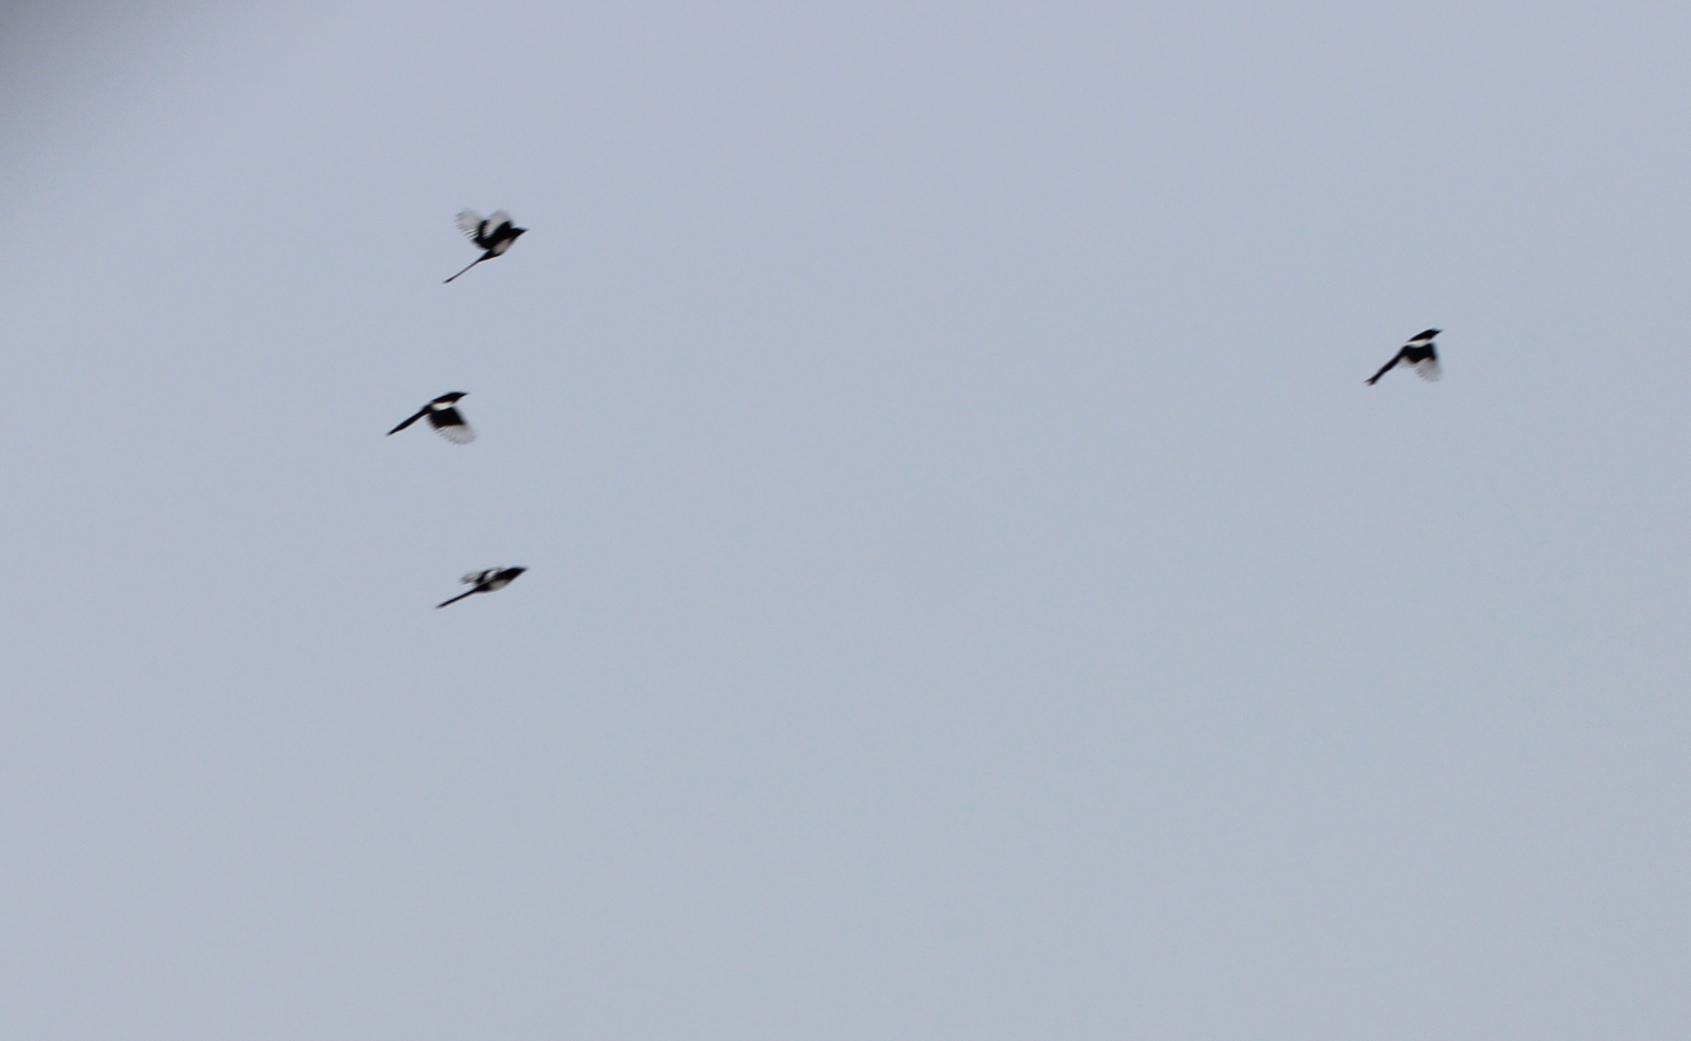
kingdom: Animalia
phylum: Chordata
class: Aves
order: Passeriformes
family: Corvidae
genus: Pica
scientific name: Pica pica
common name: Eurasian magpie
